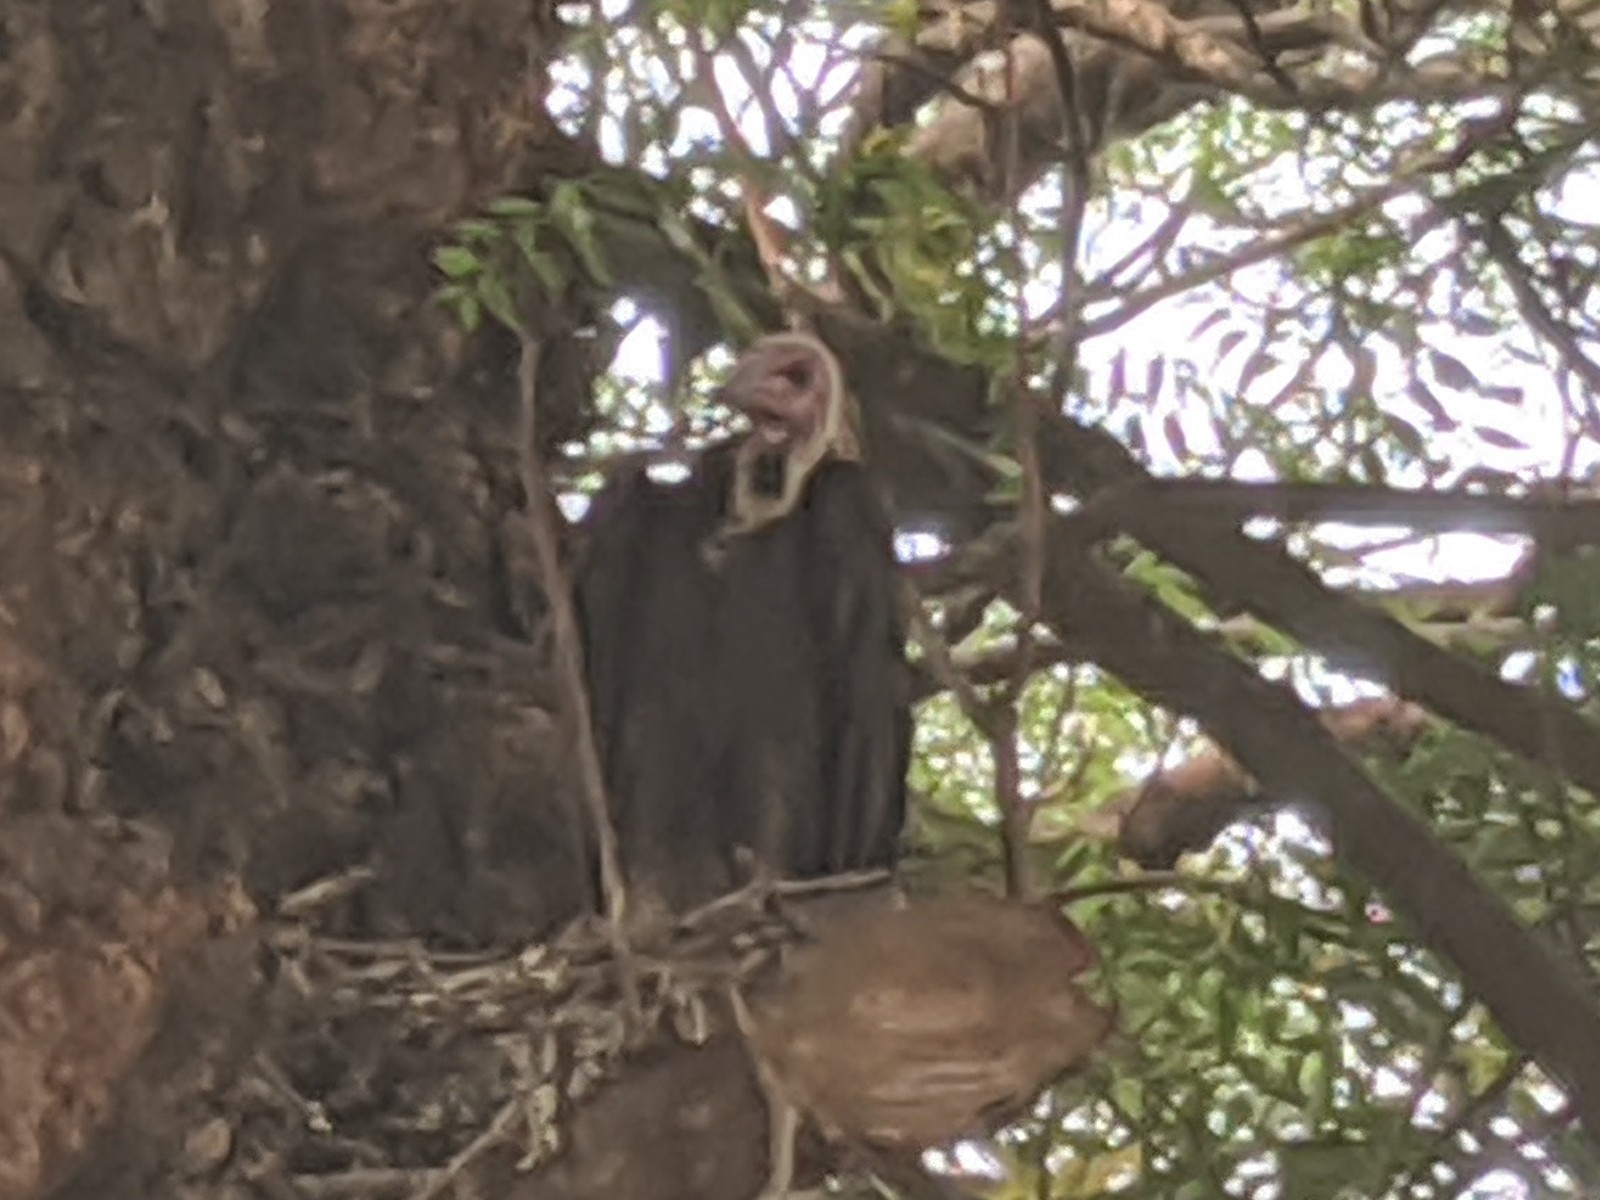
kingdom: Animalia
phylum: Chordata
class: Aves
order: Accipitriformes
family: Accipitridae
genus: Necrosyrtes
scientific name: Necrosyrtes monachus
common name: Hooded vulture
